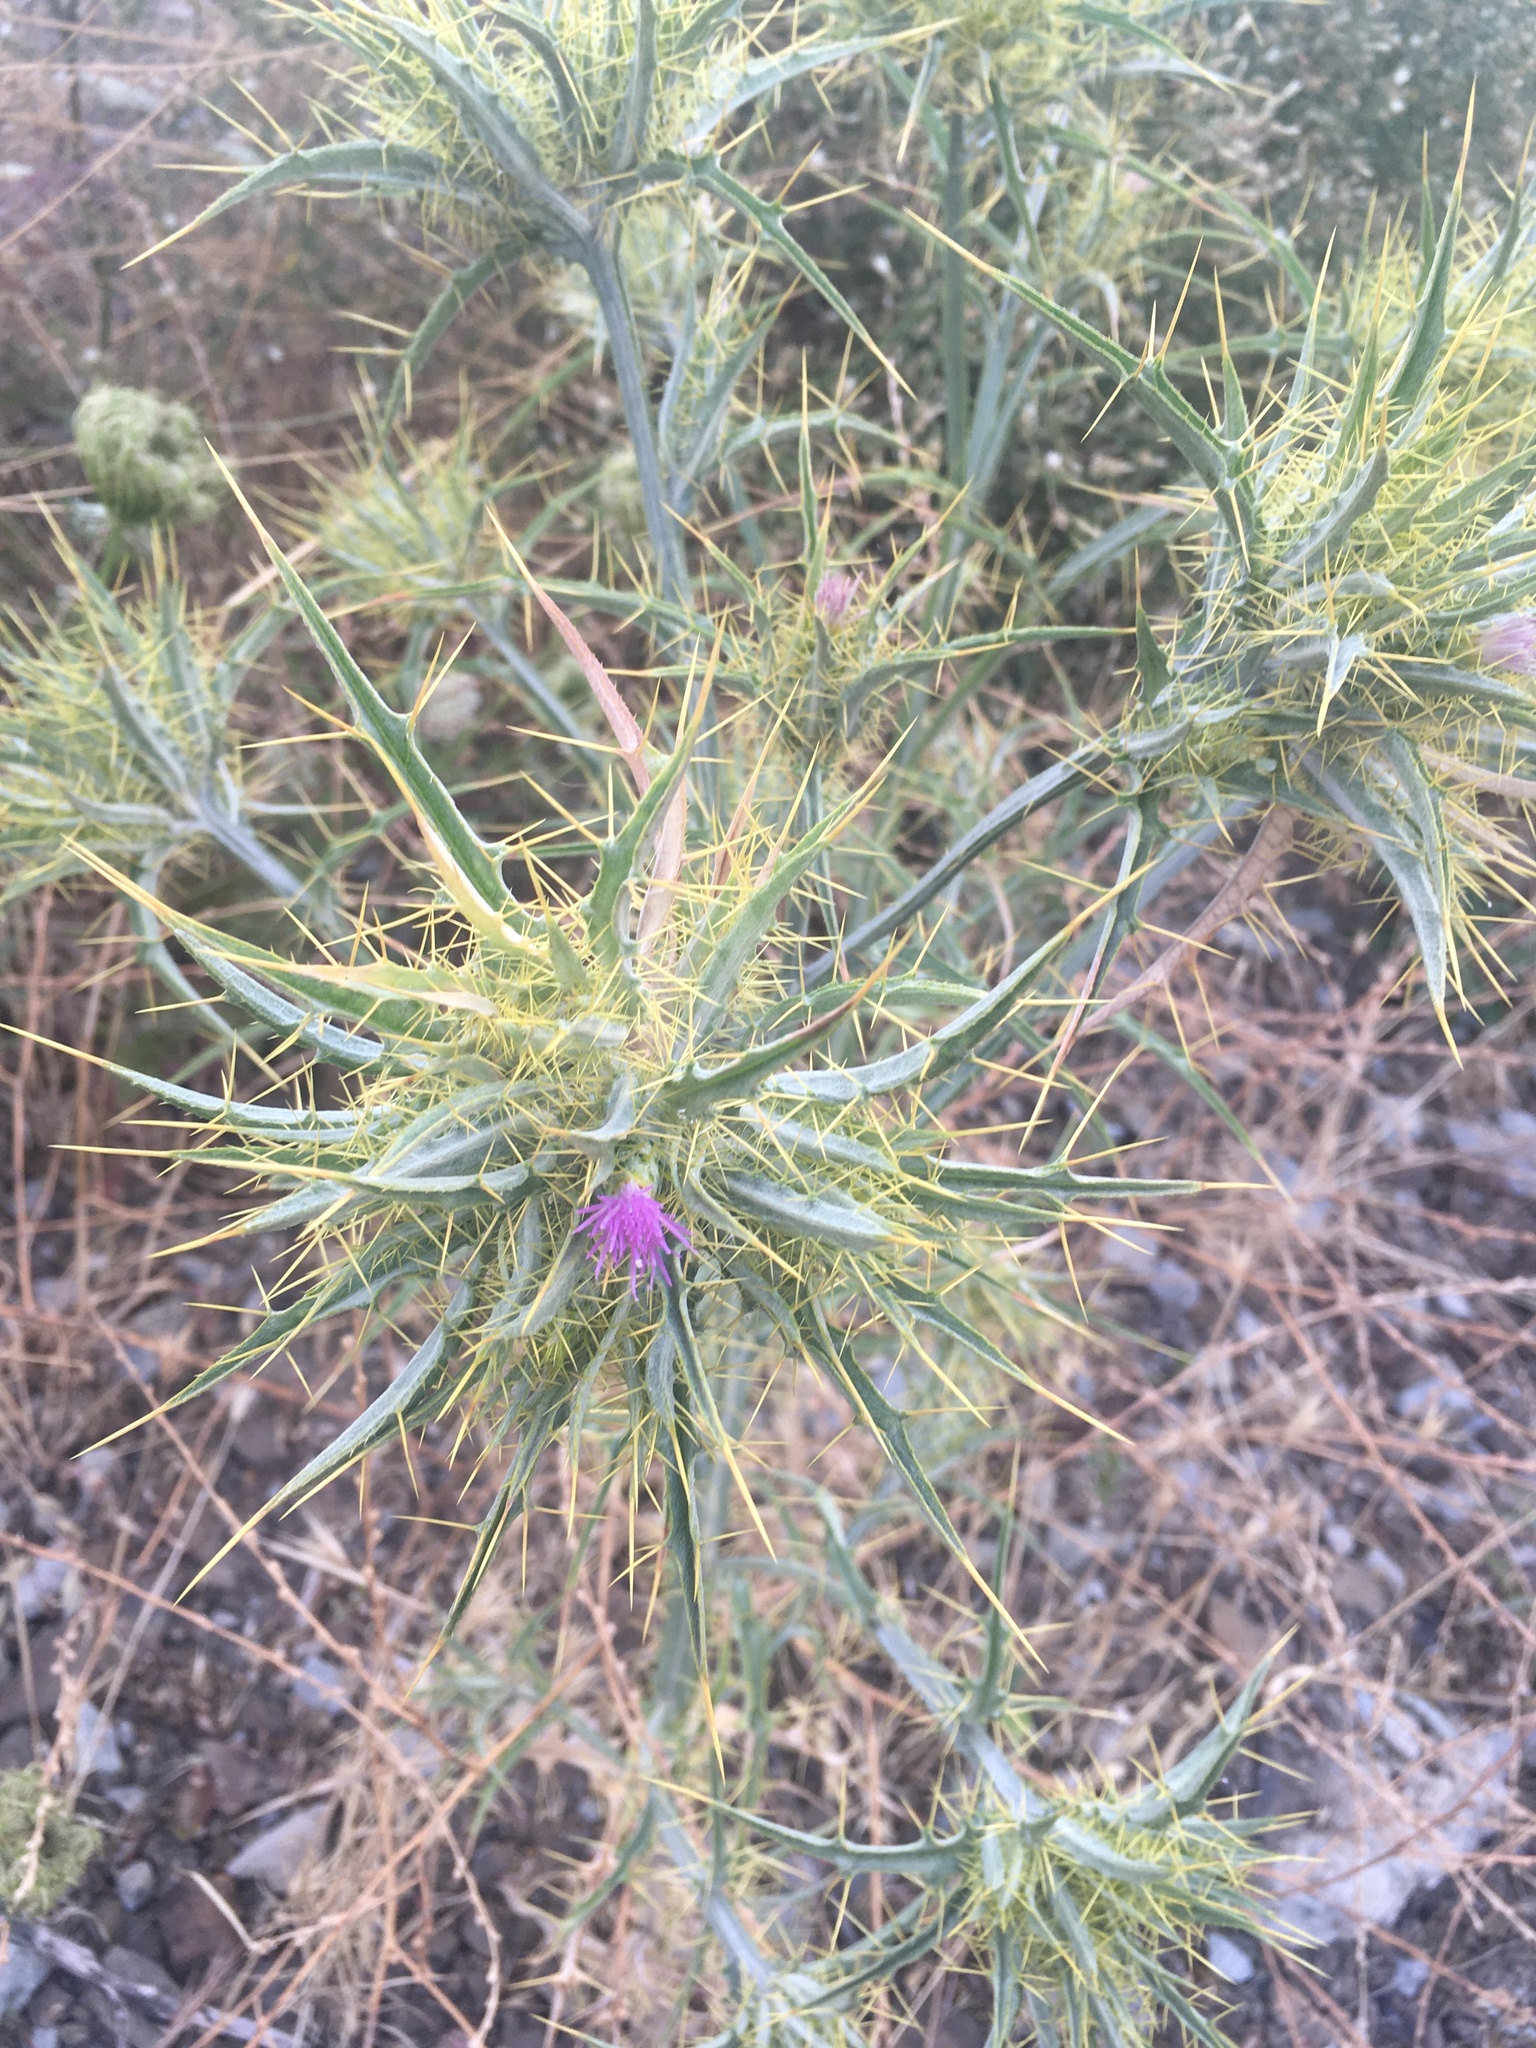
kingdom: Plantae
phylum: Tracheophyta
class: Magnoliopsida
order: Asterales
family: Asteraceae
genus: Picnomon
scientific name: Picnomon acarna
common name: Soldier thistle
